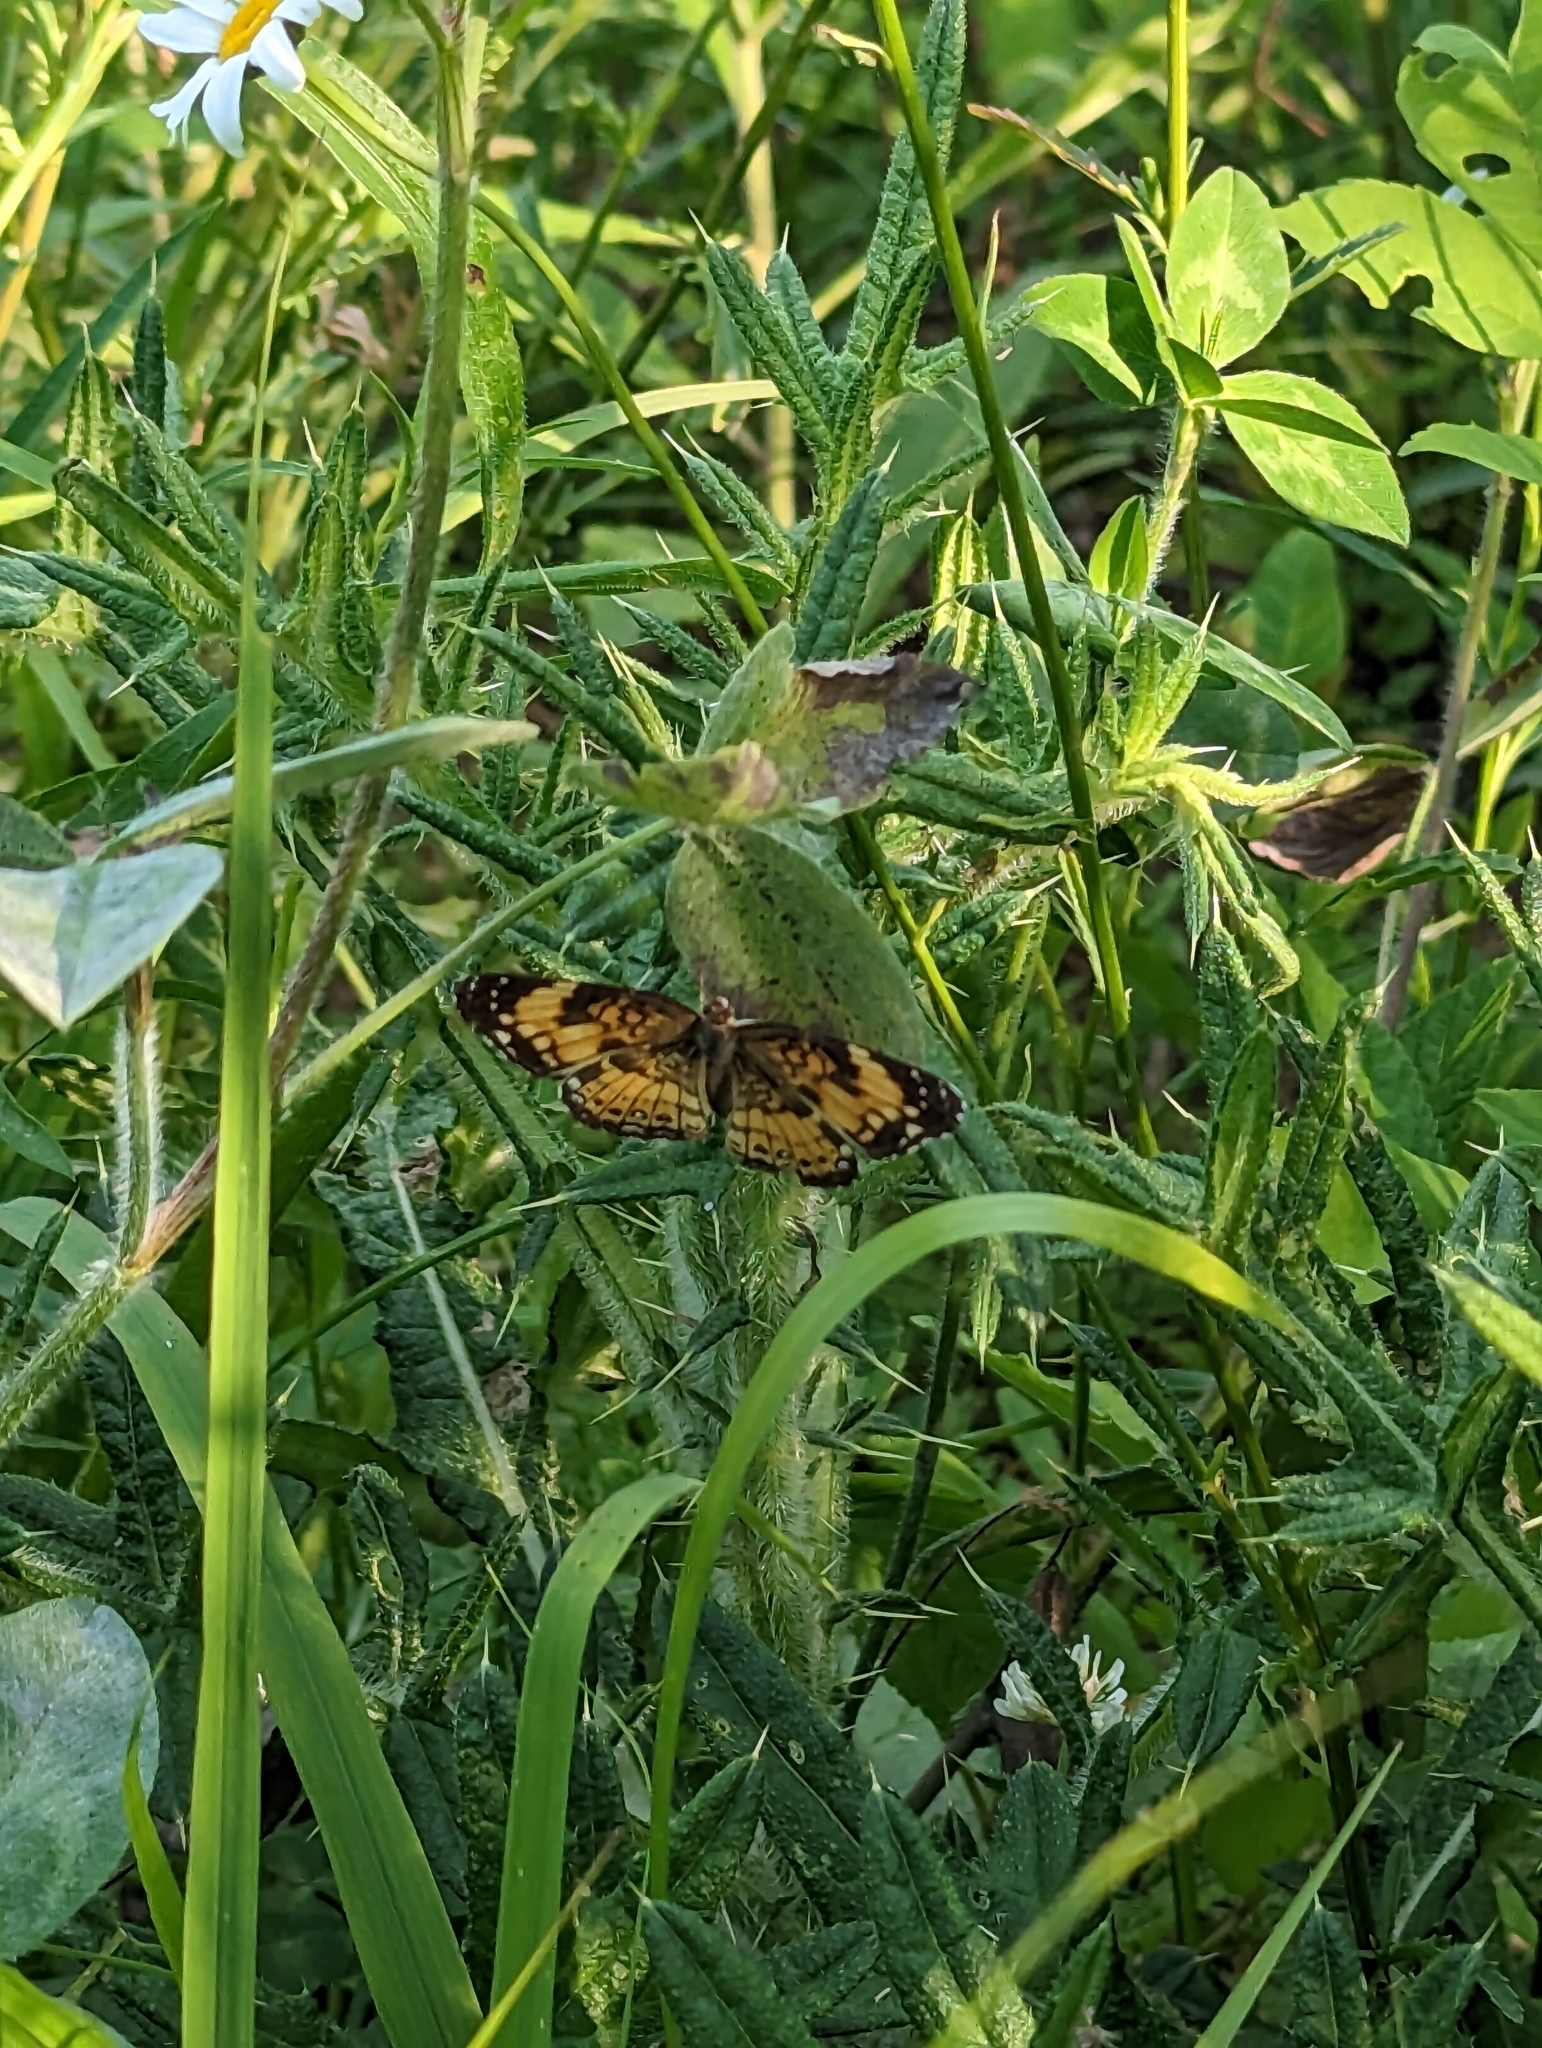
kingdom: Animalia
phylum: Arthropoda
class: Insecta
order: Lepidoptera
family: Nymphalidae
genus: Chlosyne
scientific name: Chlosyne nycteis
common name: Silvery checkerspot
